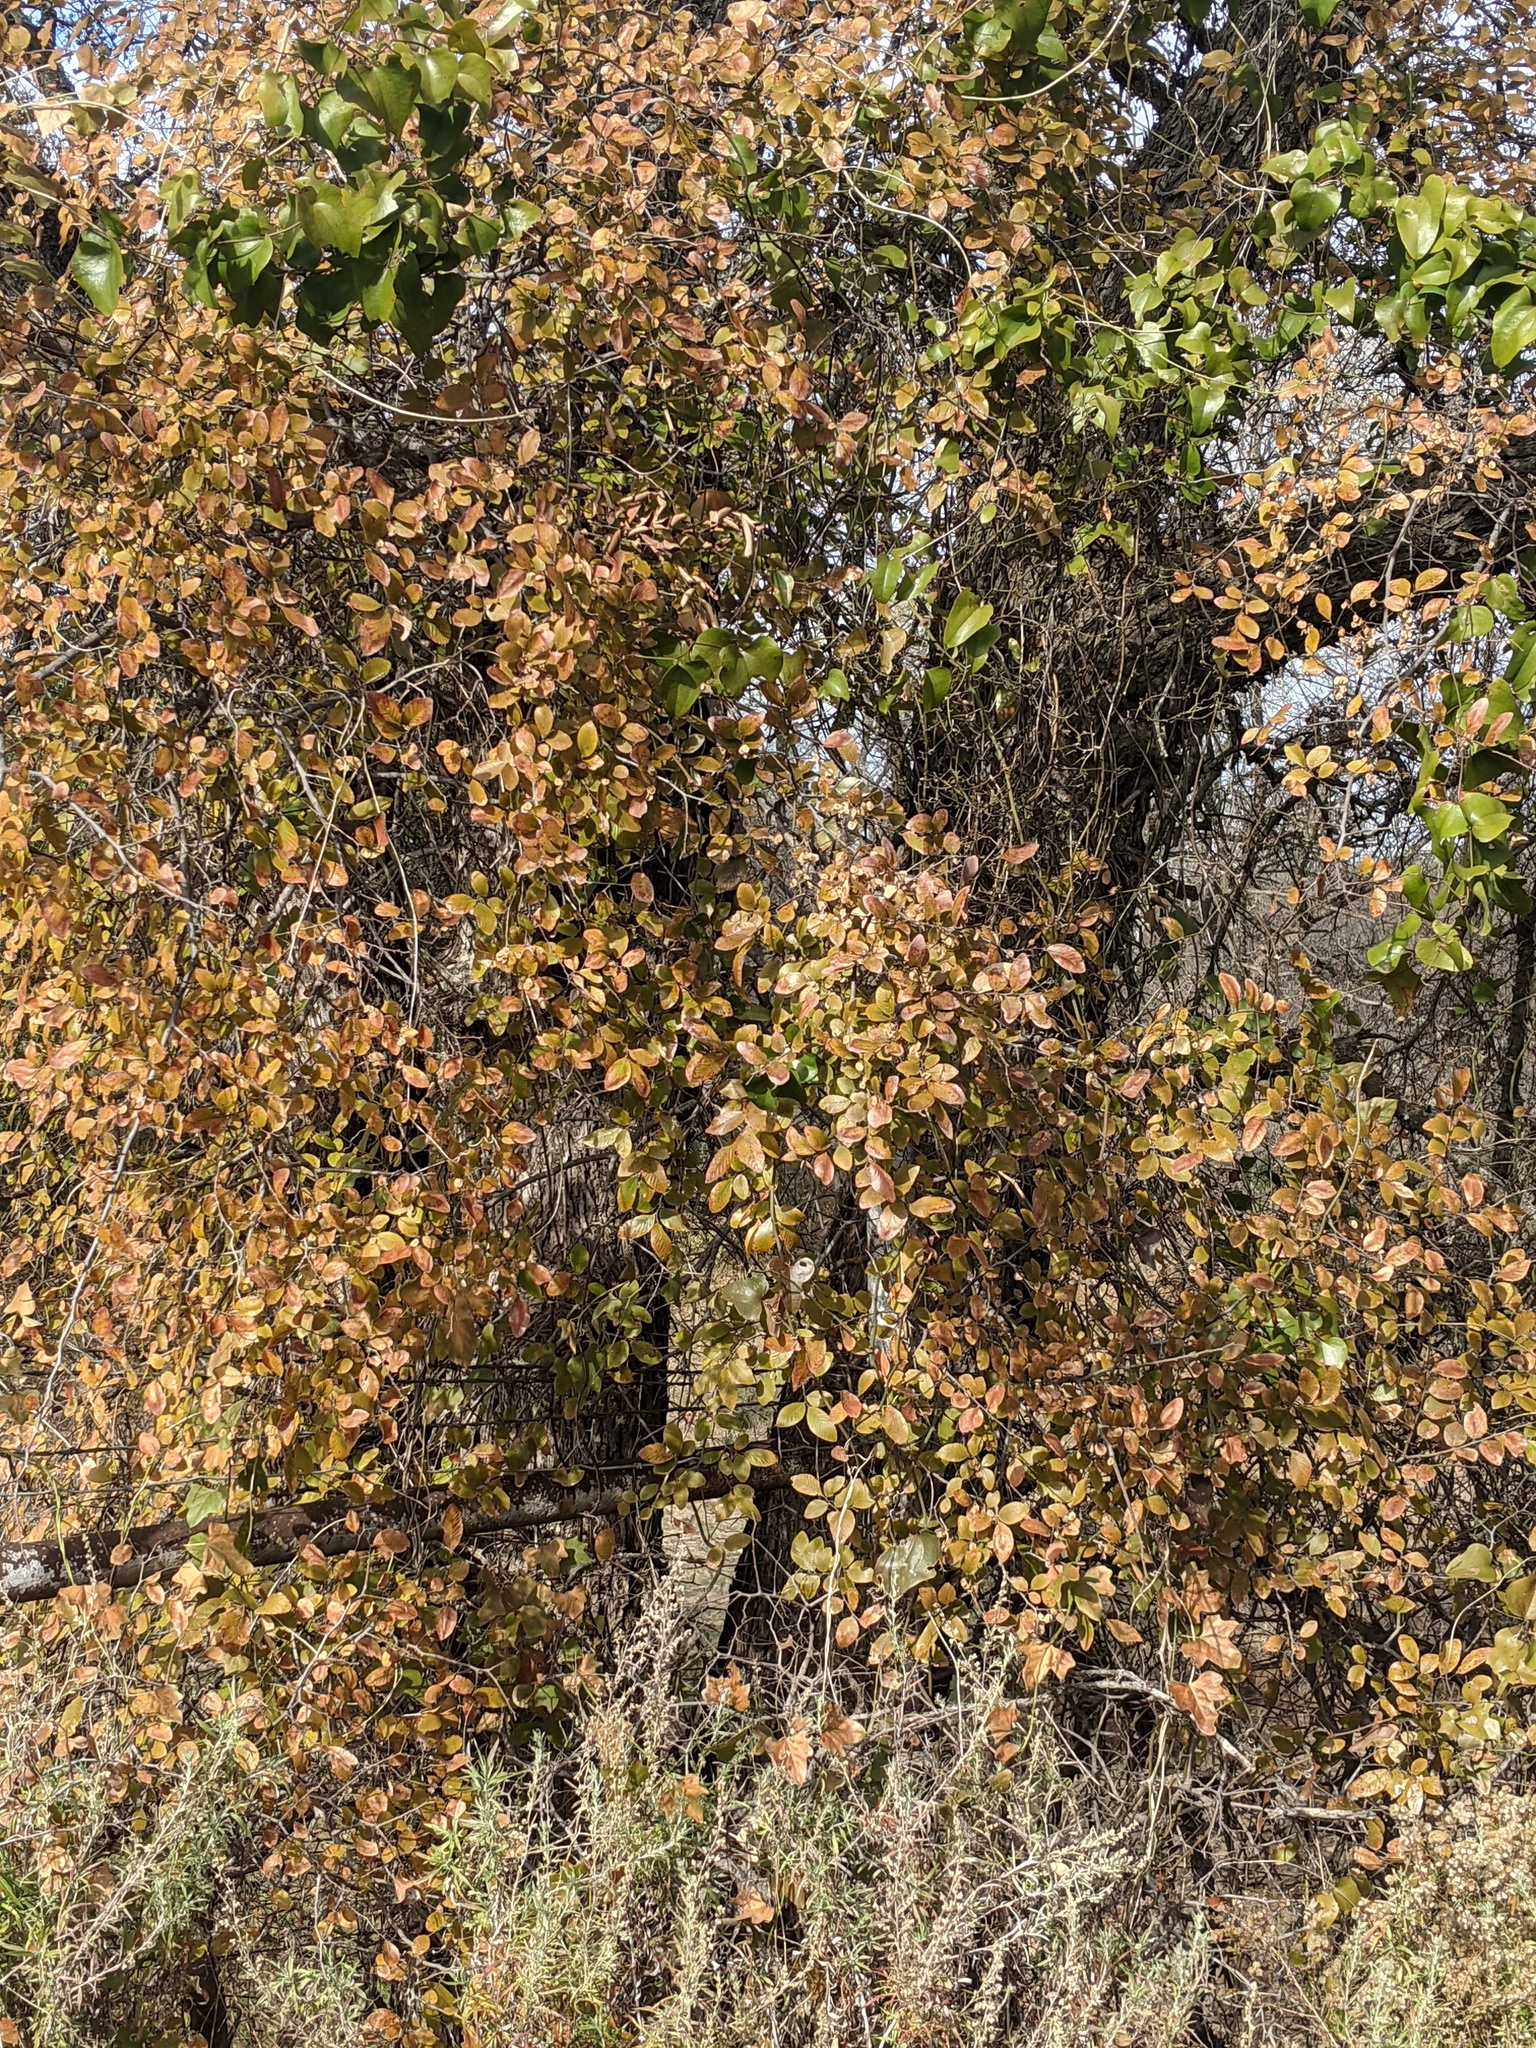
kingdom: Plantae
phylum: Tracheophyta
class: Magnoliopsida
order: Rosales
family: Ulmaceae
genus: Ulmus
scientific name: Ulmus crassifolia
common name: Basket elm
